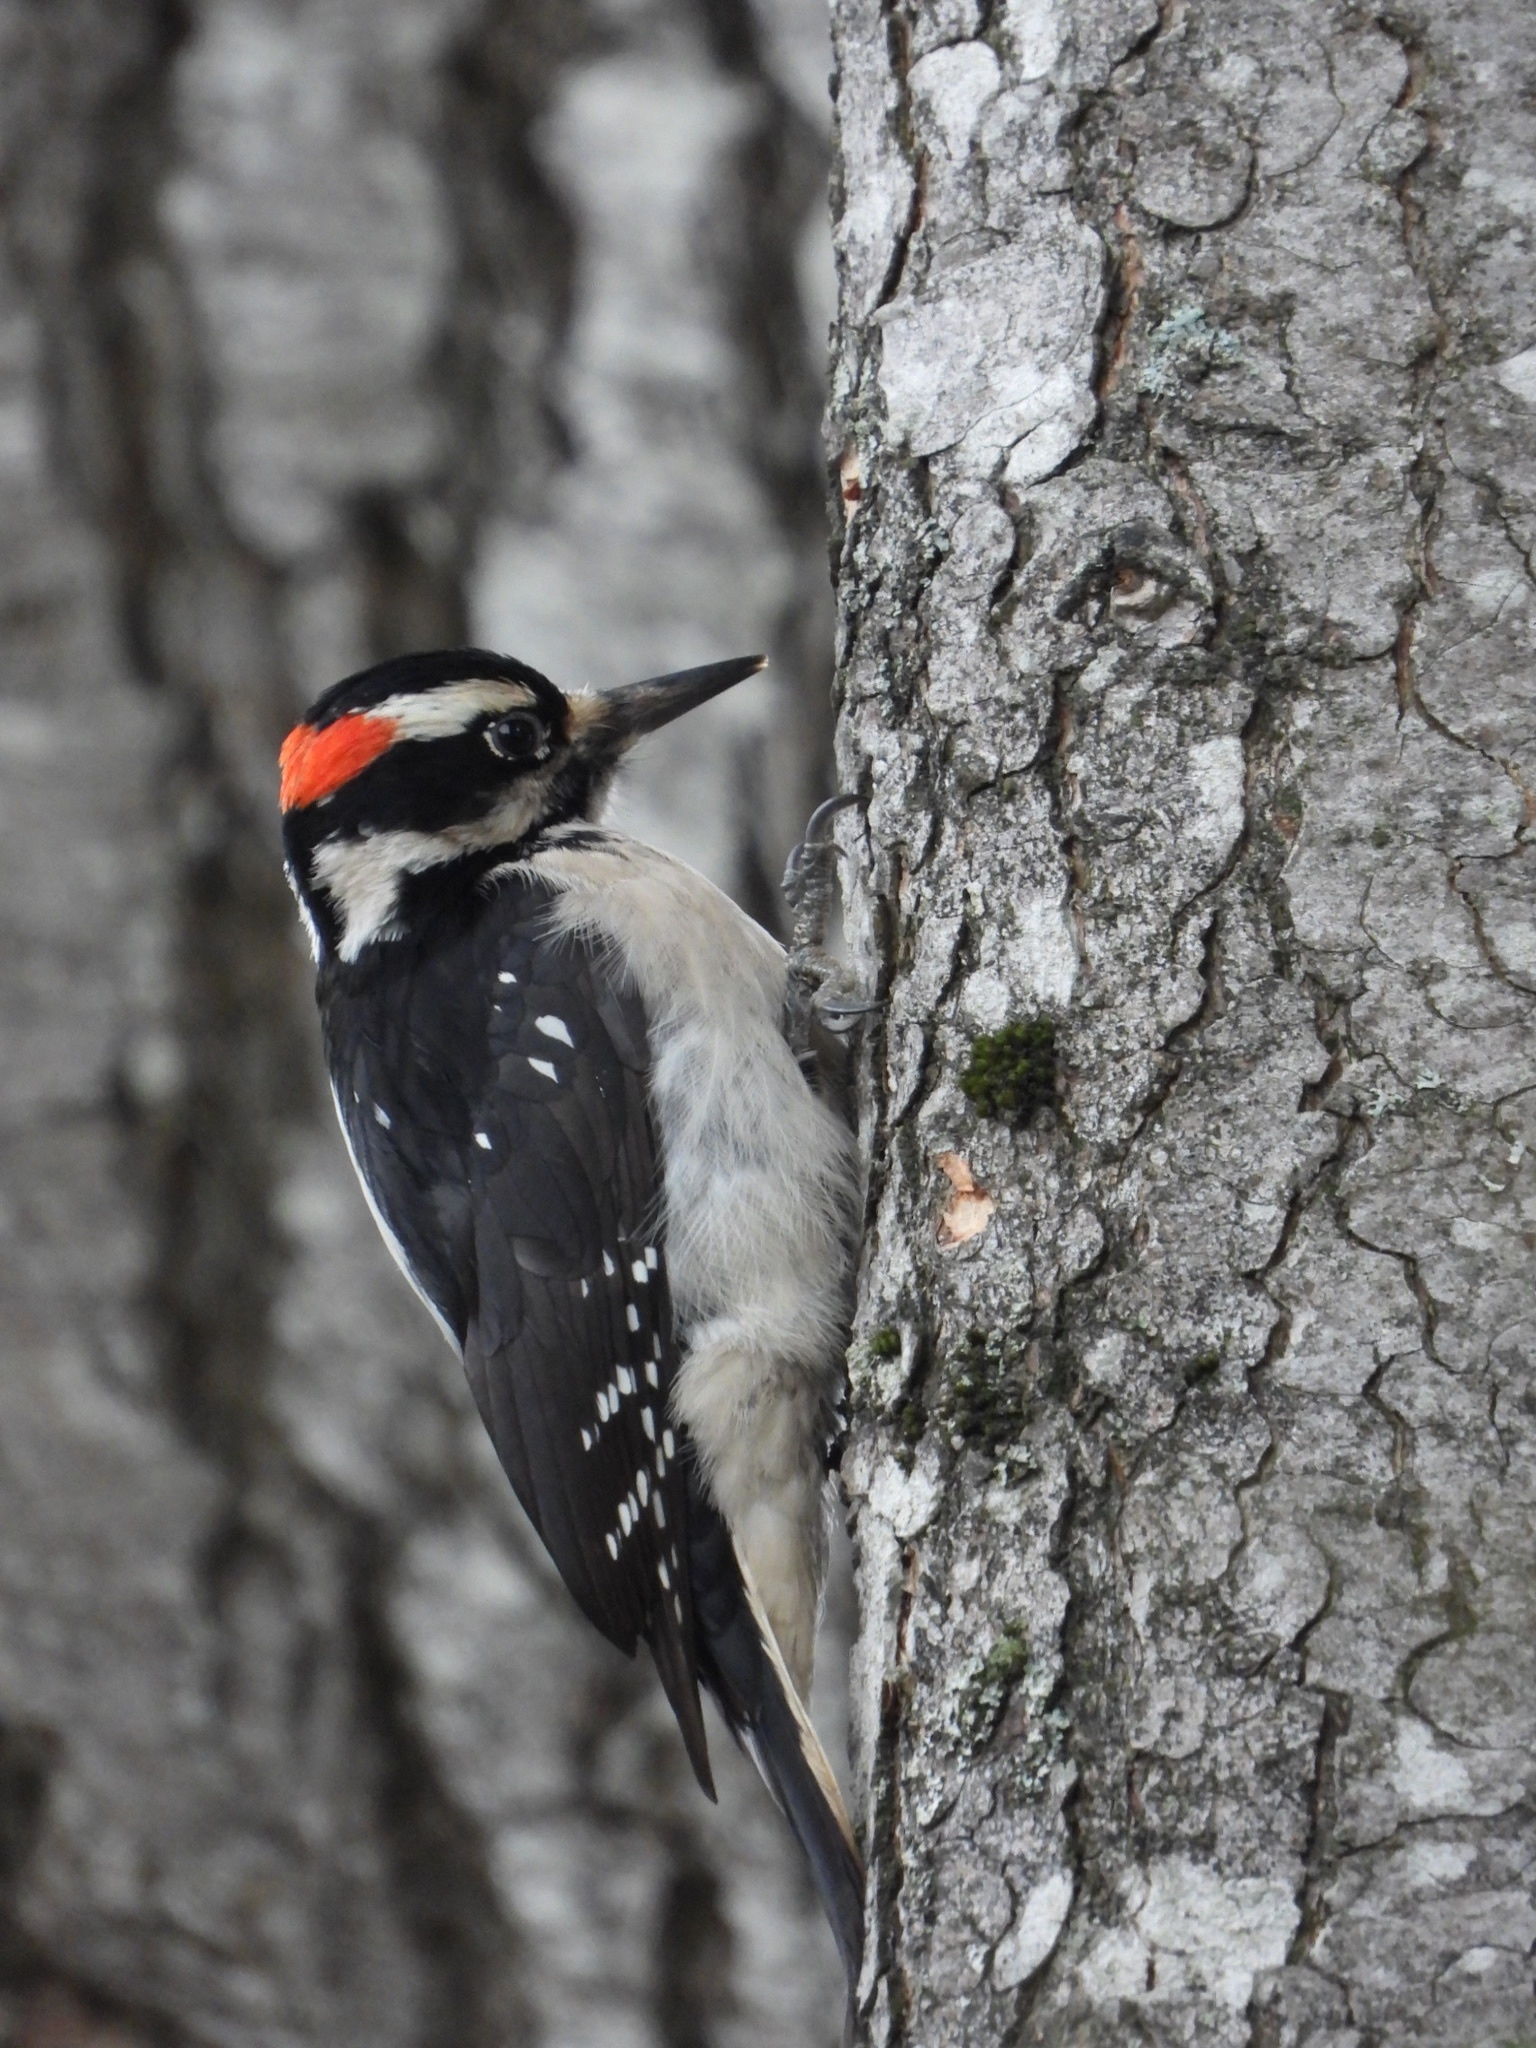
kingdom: Animalia
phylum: Chordata
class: Aves
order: Piciformes
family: Picidae
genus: Leuconotopicus
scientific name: Leuconotopicus villosus
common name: Hairy woodpecker
